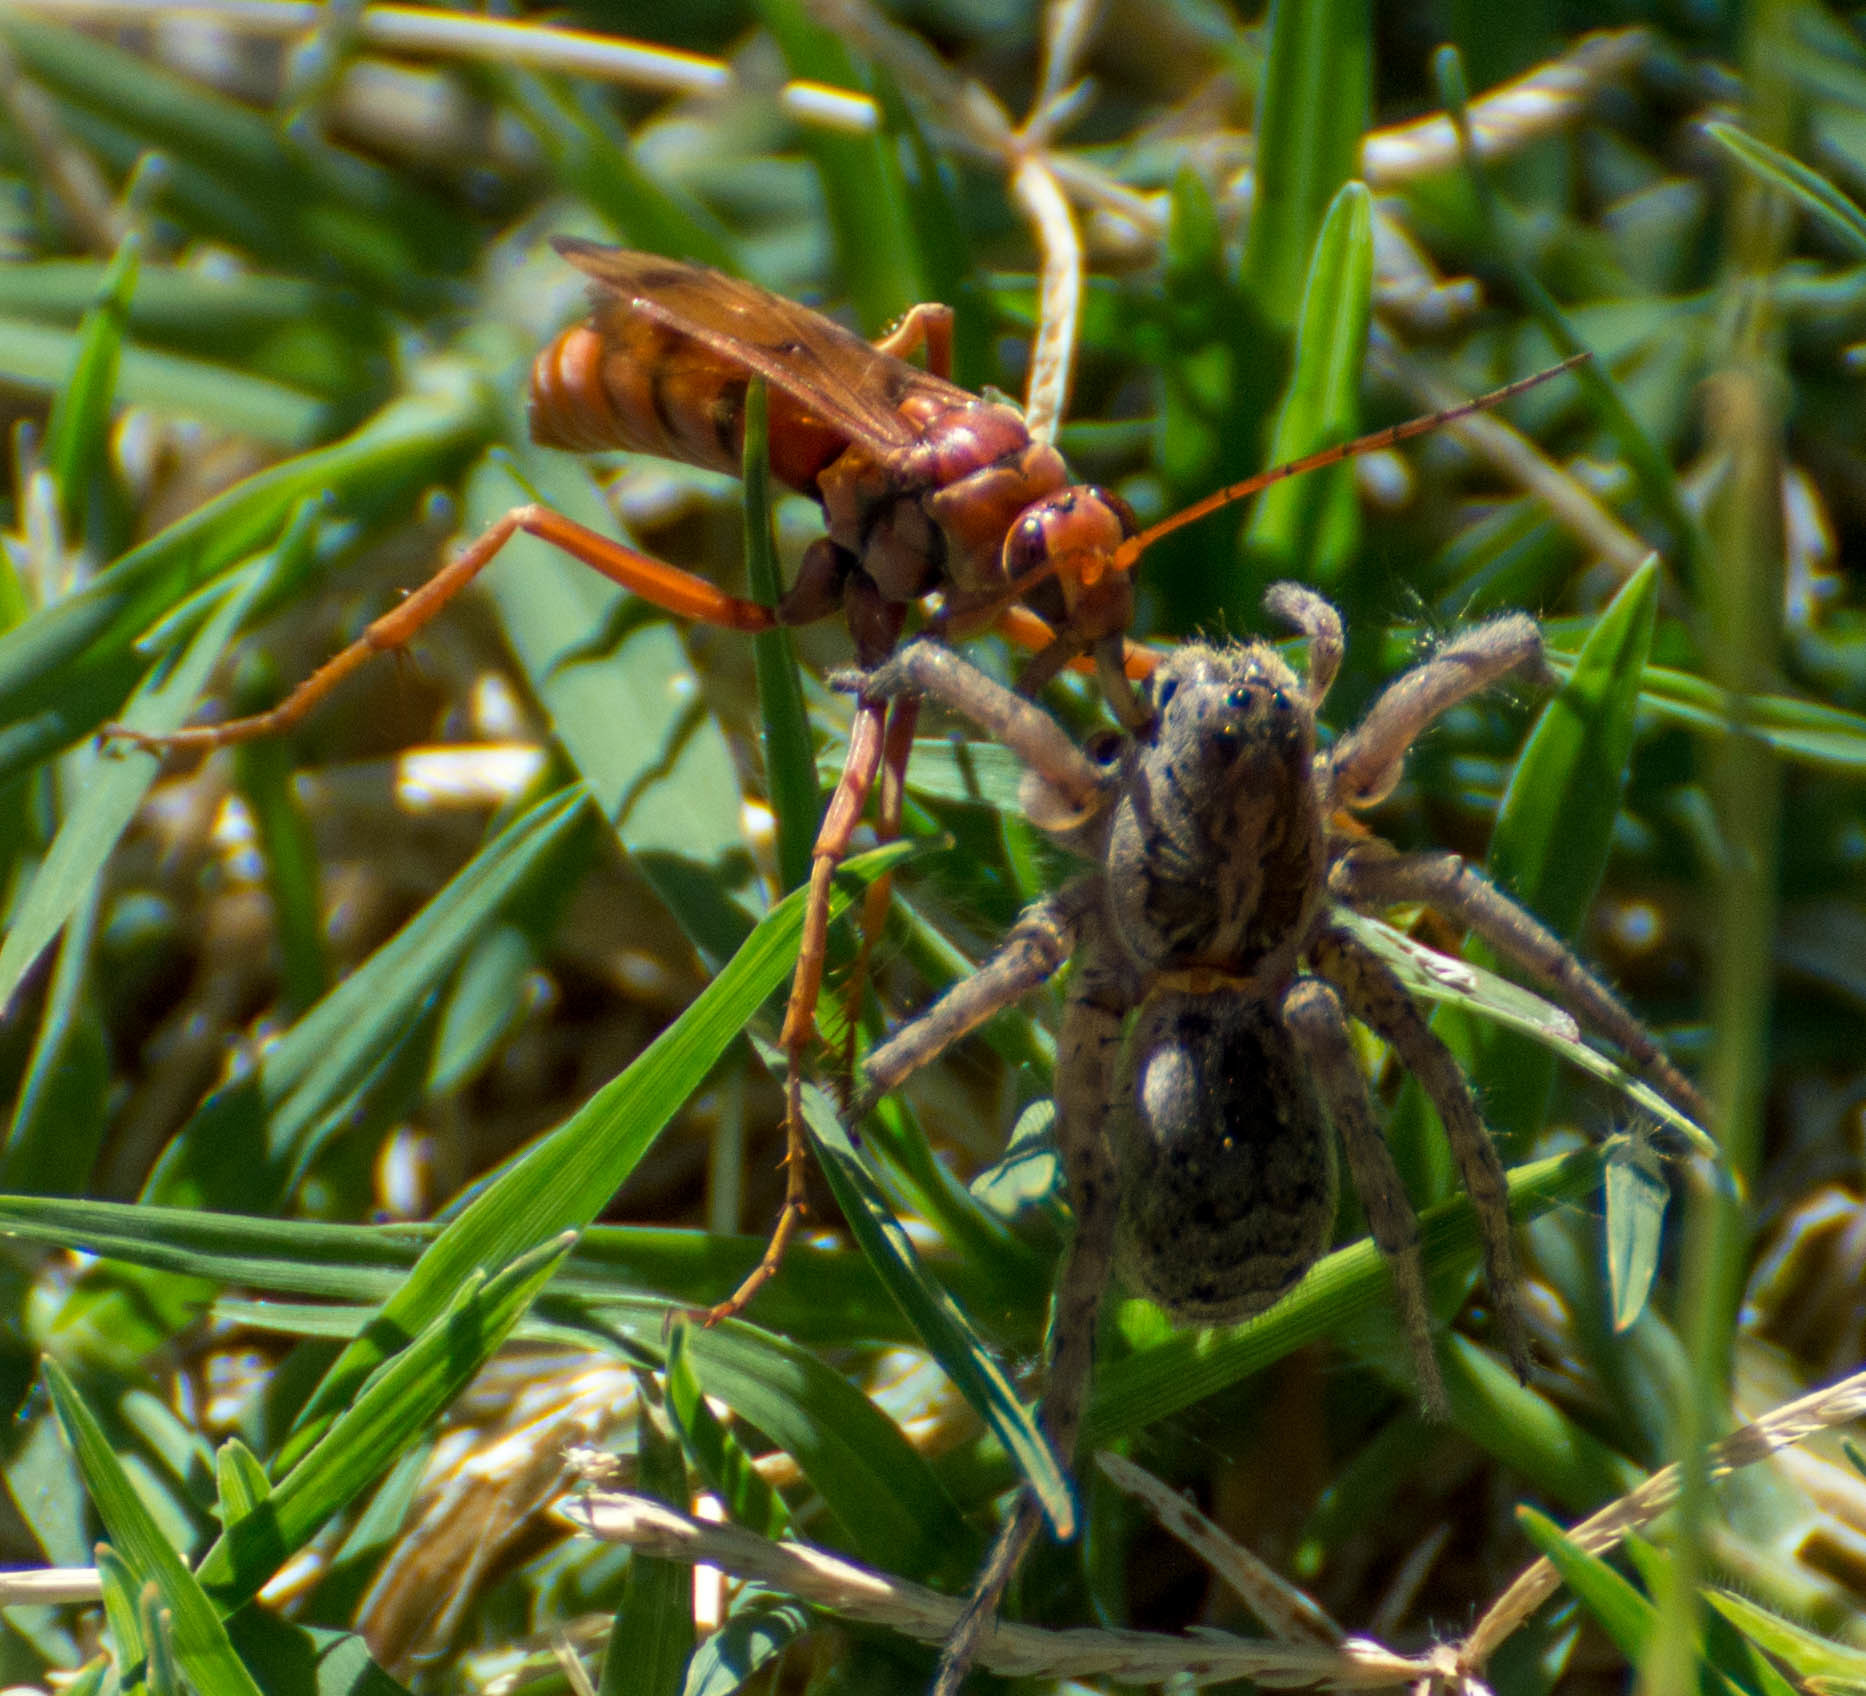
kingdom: Animalia
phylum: Arthropoda
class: Insecta
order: Hymenoptera
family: Pompilidae
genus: Tachypompilus
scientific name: Tachypompilus mendozae
